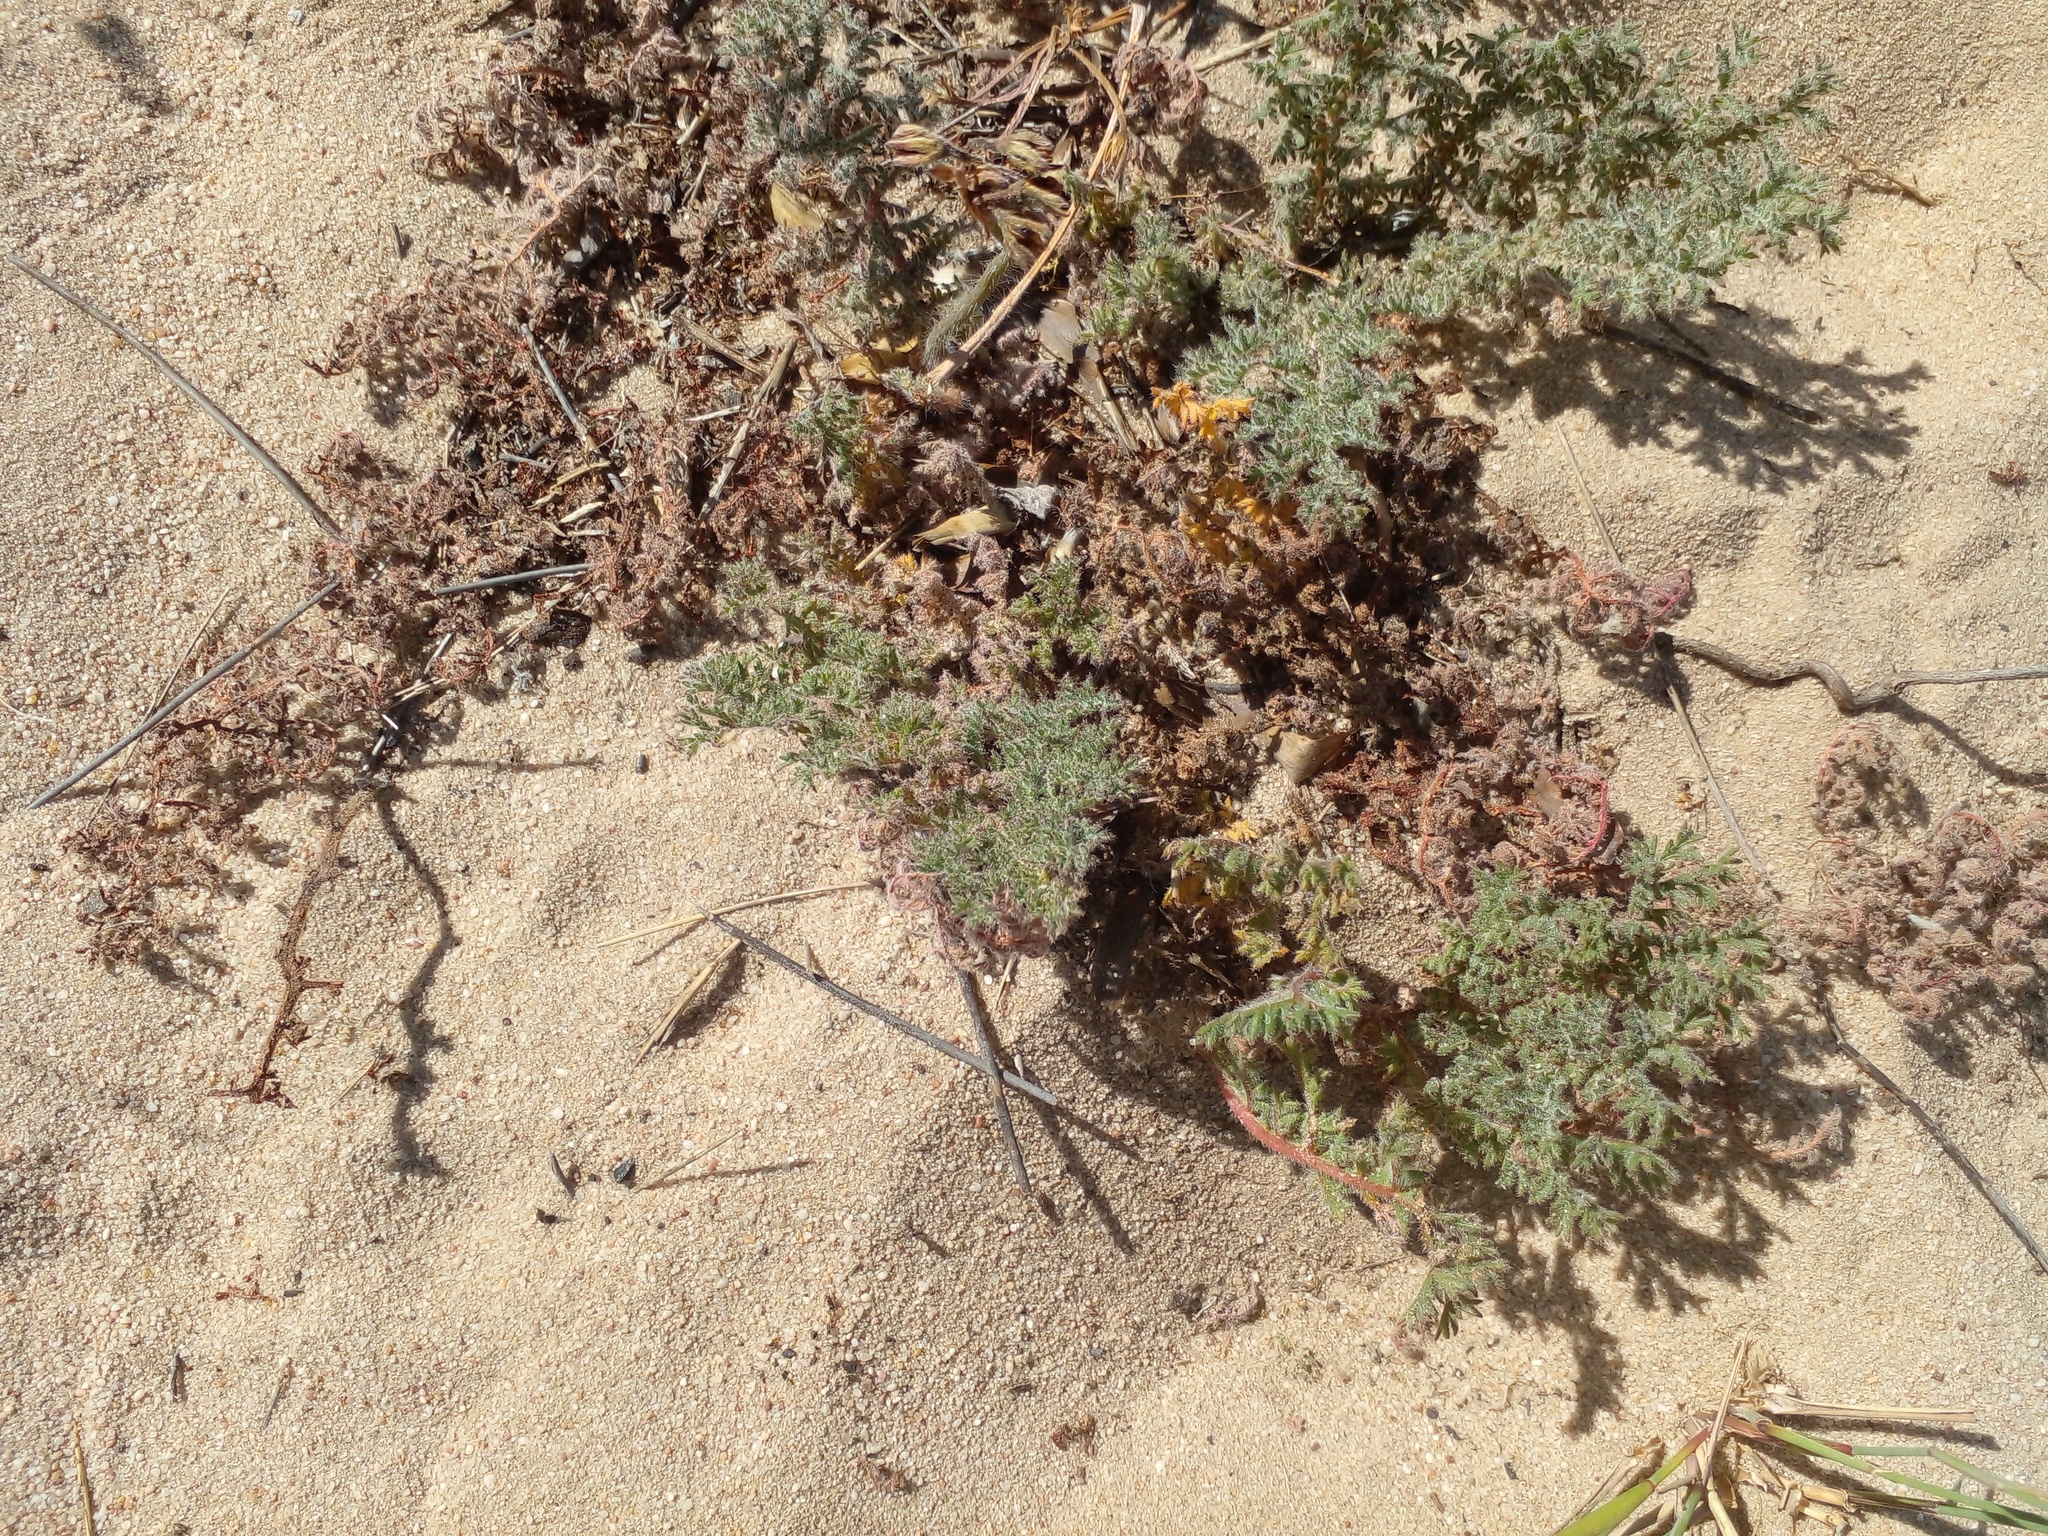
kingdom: Plantae
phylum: Tracheophyta
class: Magnoliopsida
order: Geraniales
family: Geraniaceae
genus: Pelargonium
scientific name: Pelargonium triste
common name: Night-scent pelargonium
